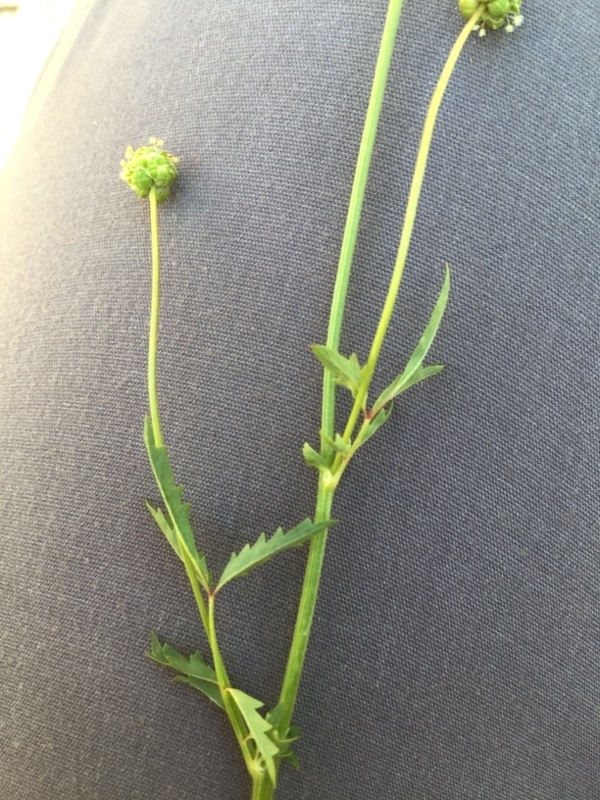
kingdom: Plantae
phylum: Tracheophyta
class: Magnoliopsida
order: Rosales
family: Rosaceae
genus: Poterium
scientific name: Poterium sanguisorba
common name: Salad burnet
